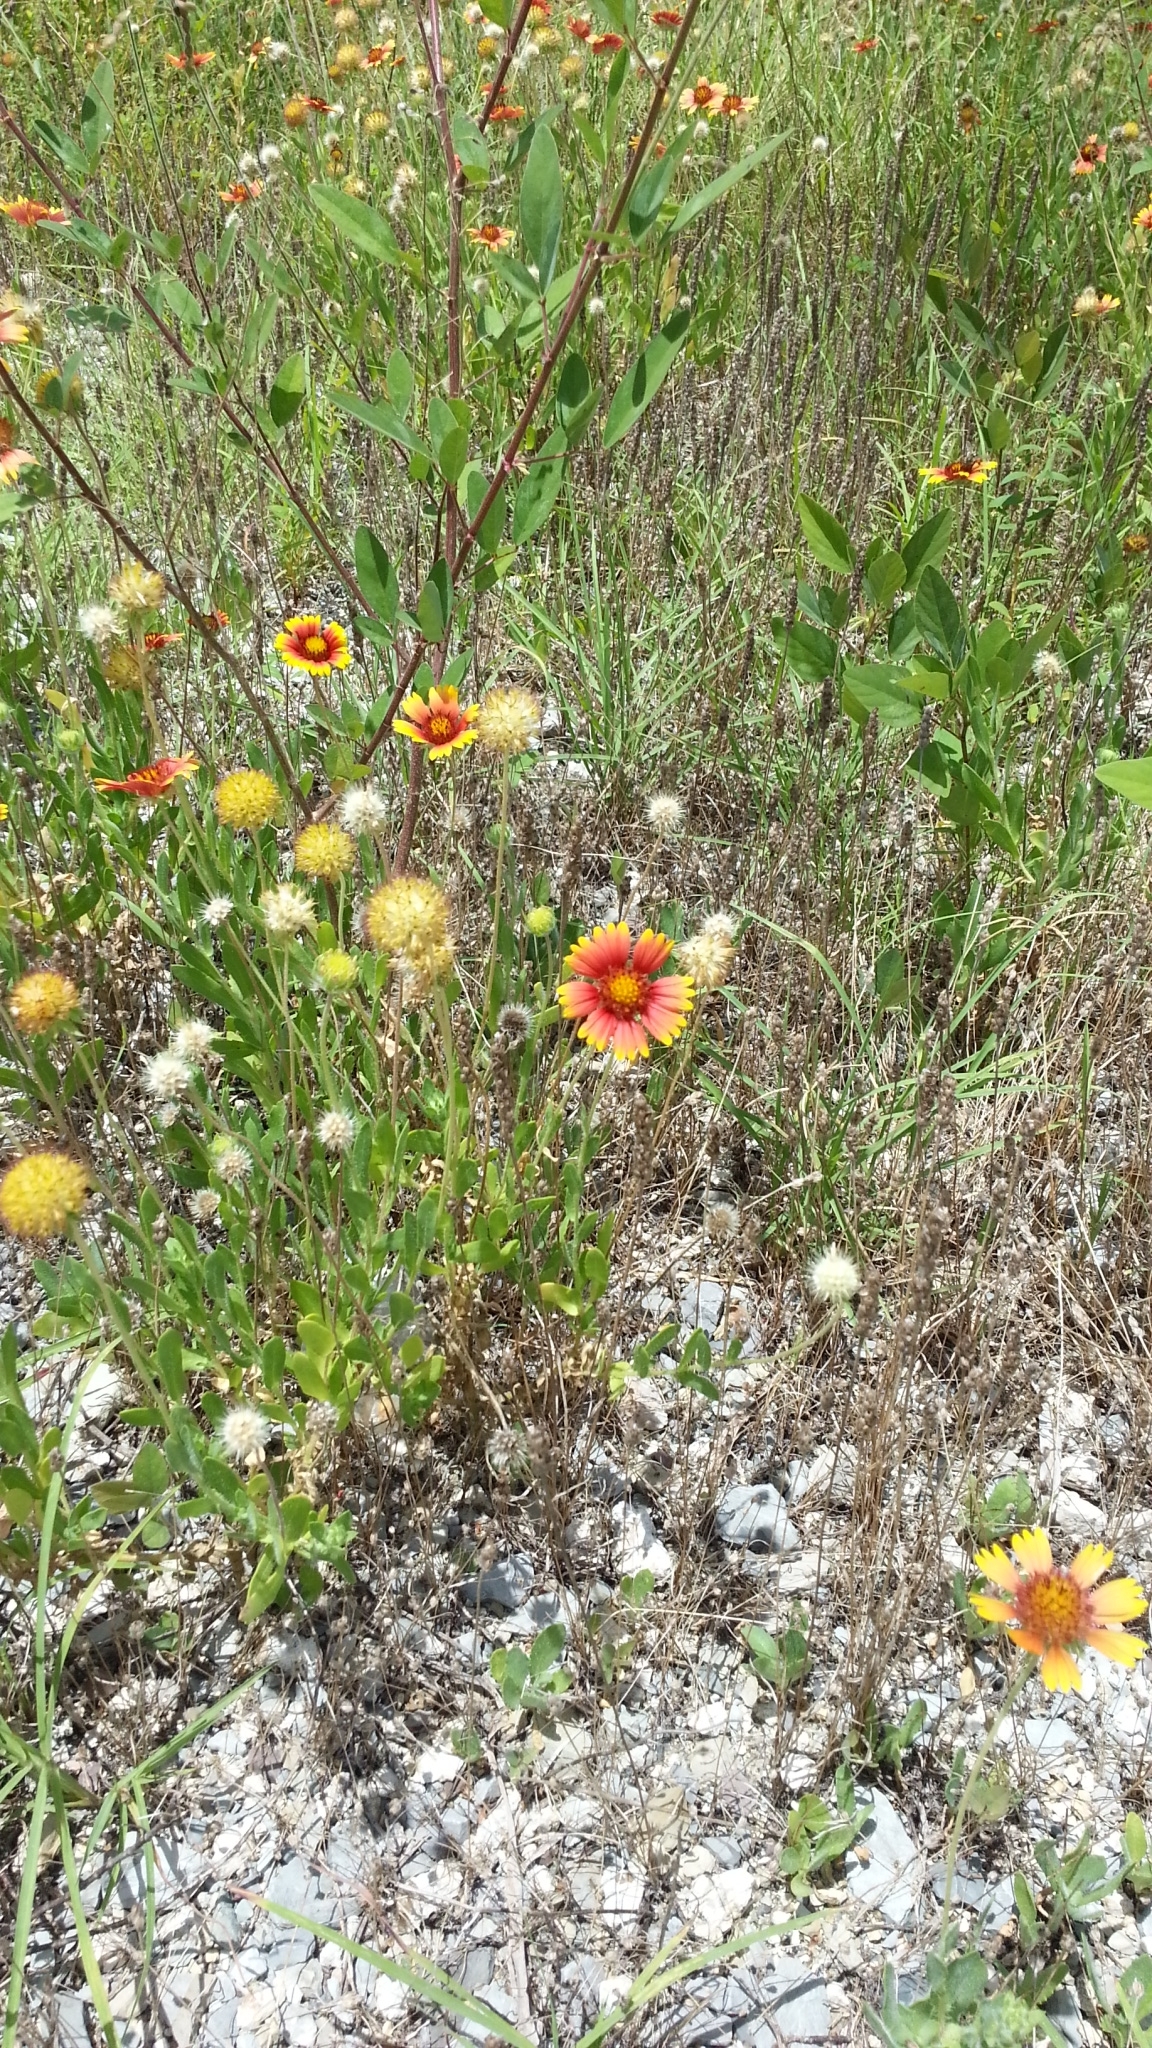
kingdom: Plantae
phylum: Tracheophyta
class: Magnoliopsida
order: Asterales
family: Asteraceae
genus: Gaillardia
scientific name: Gaillardia pulchella
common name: Firewheel
